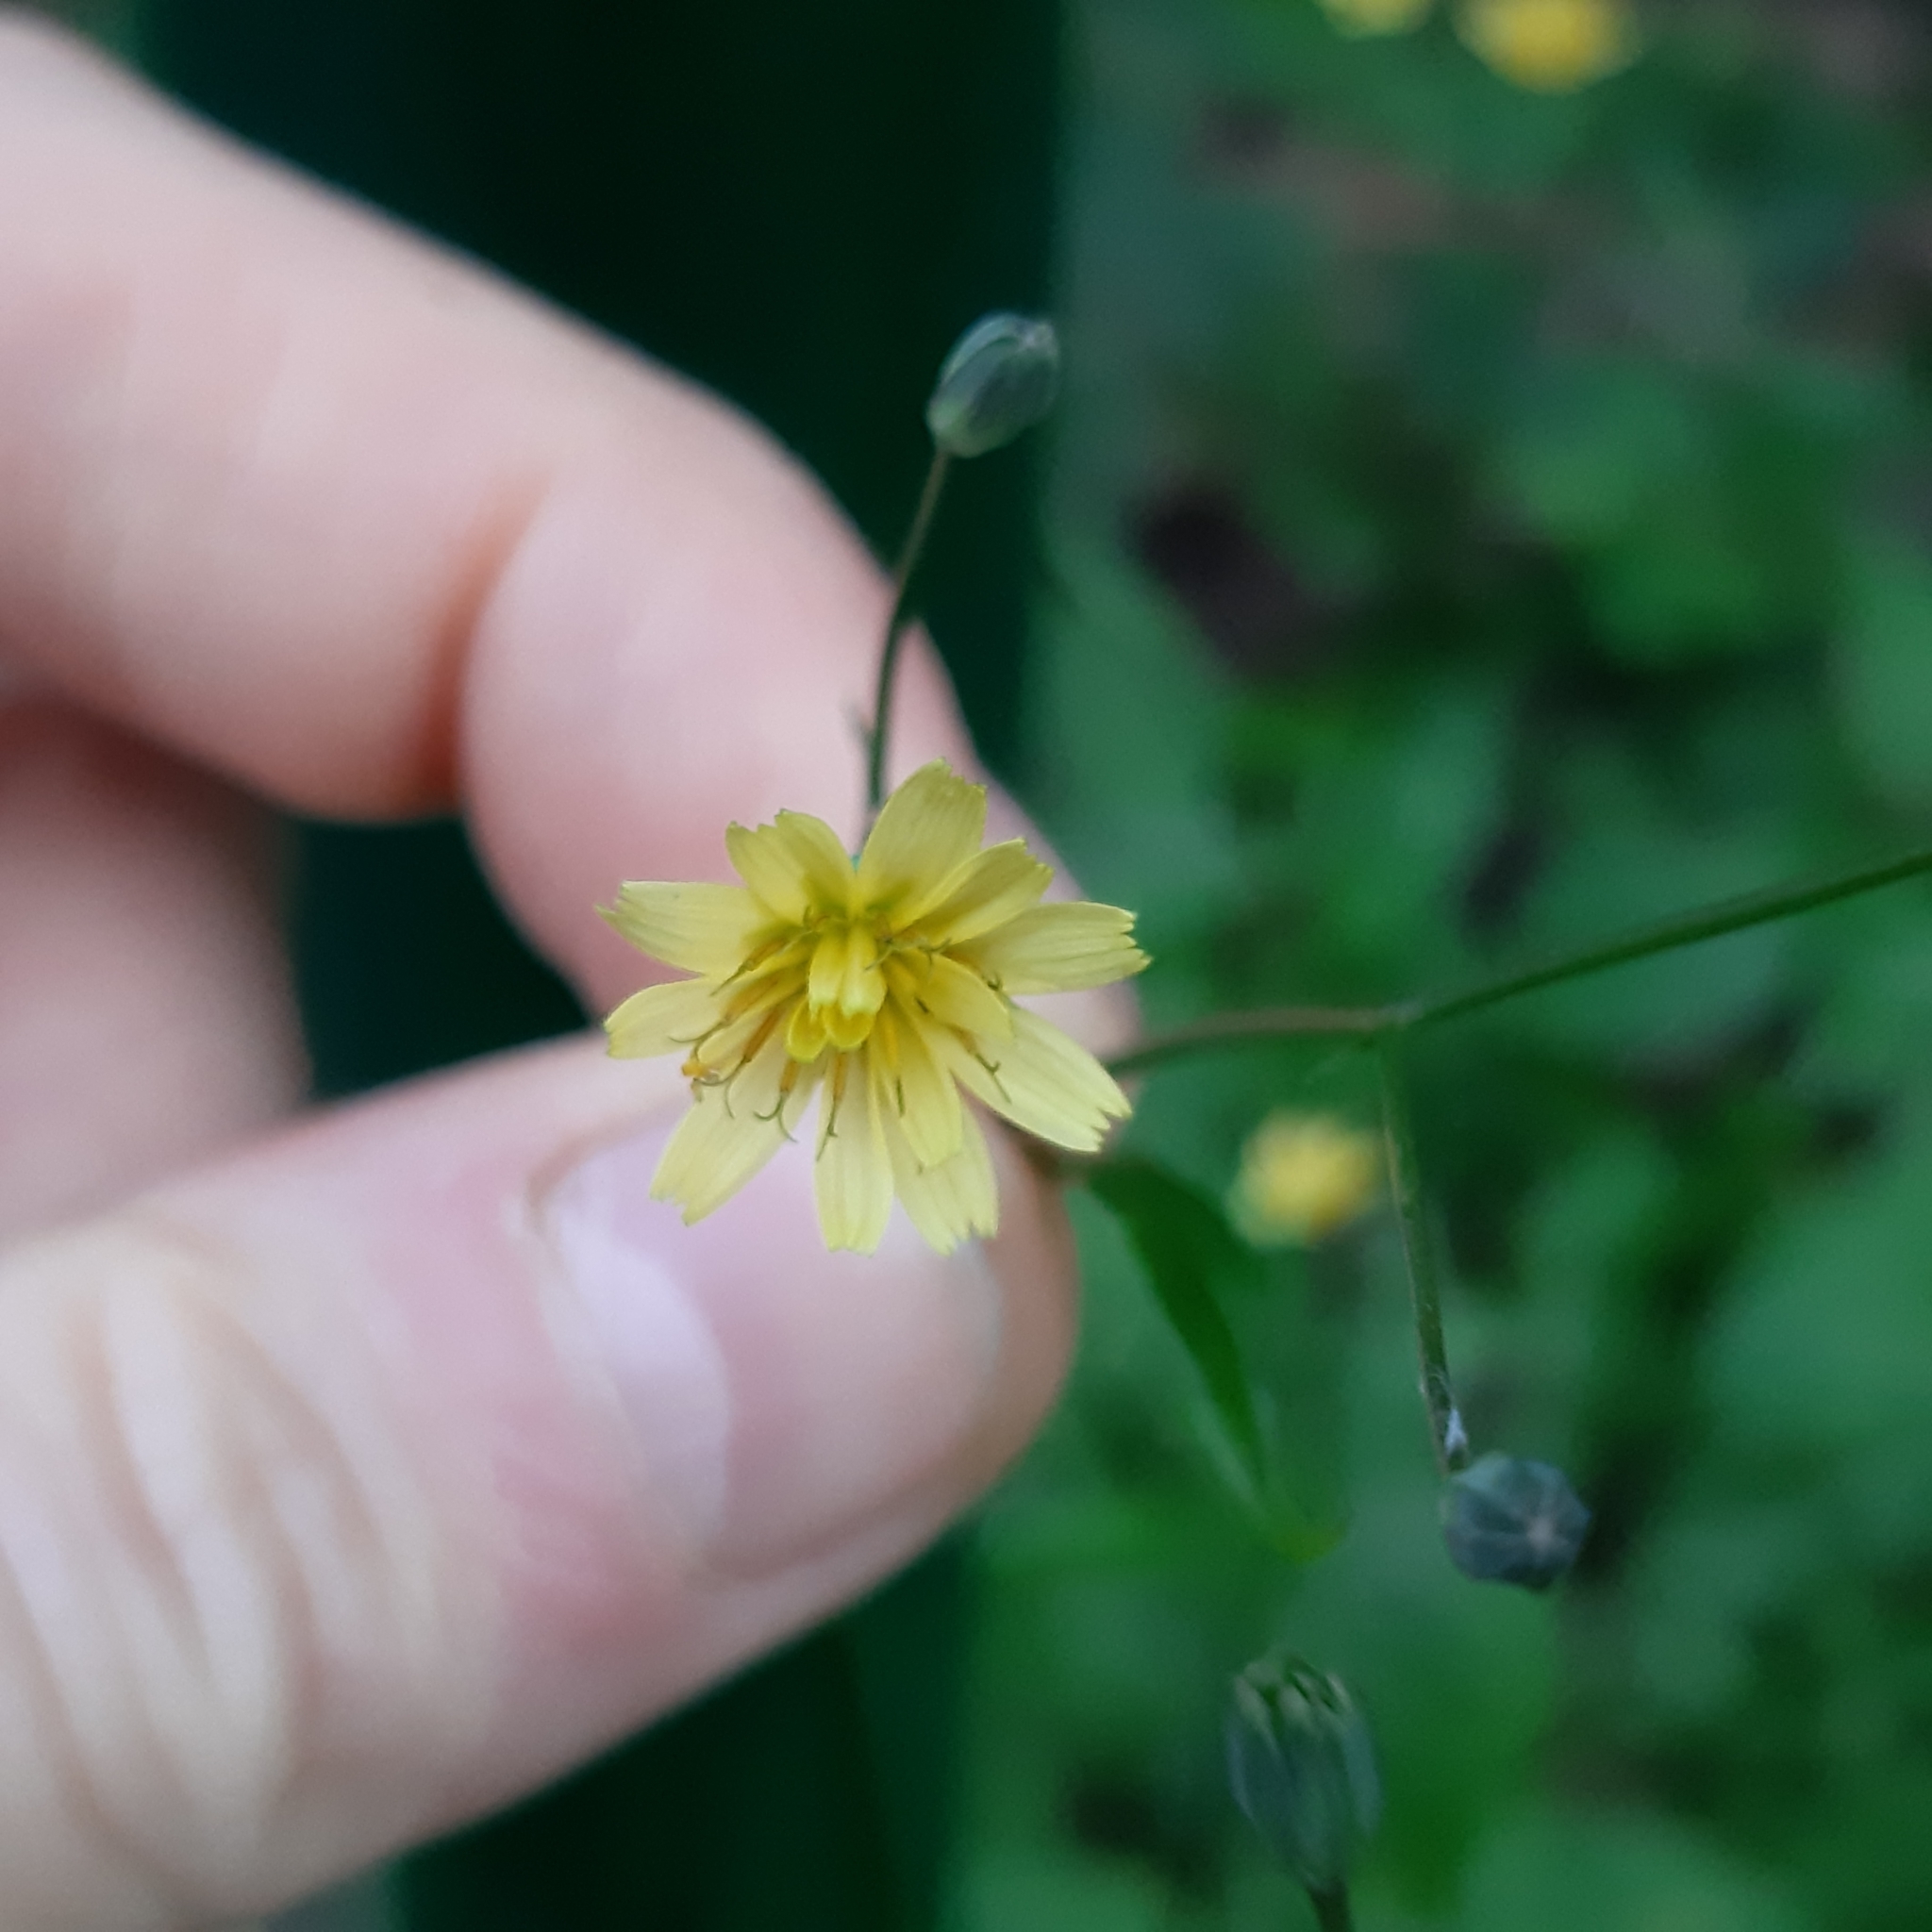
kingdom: Plantae
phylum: Tracheophyta
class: Magnoliopsida
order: Asterales
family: Asteraceae
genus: Lapsana
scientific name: Lapsana communis
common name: Nipplewort
